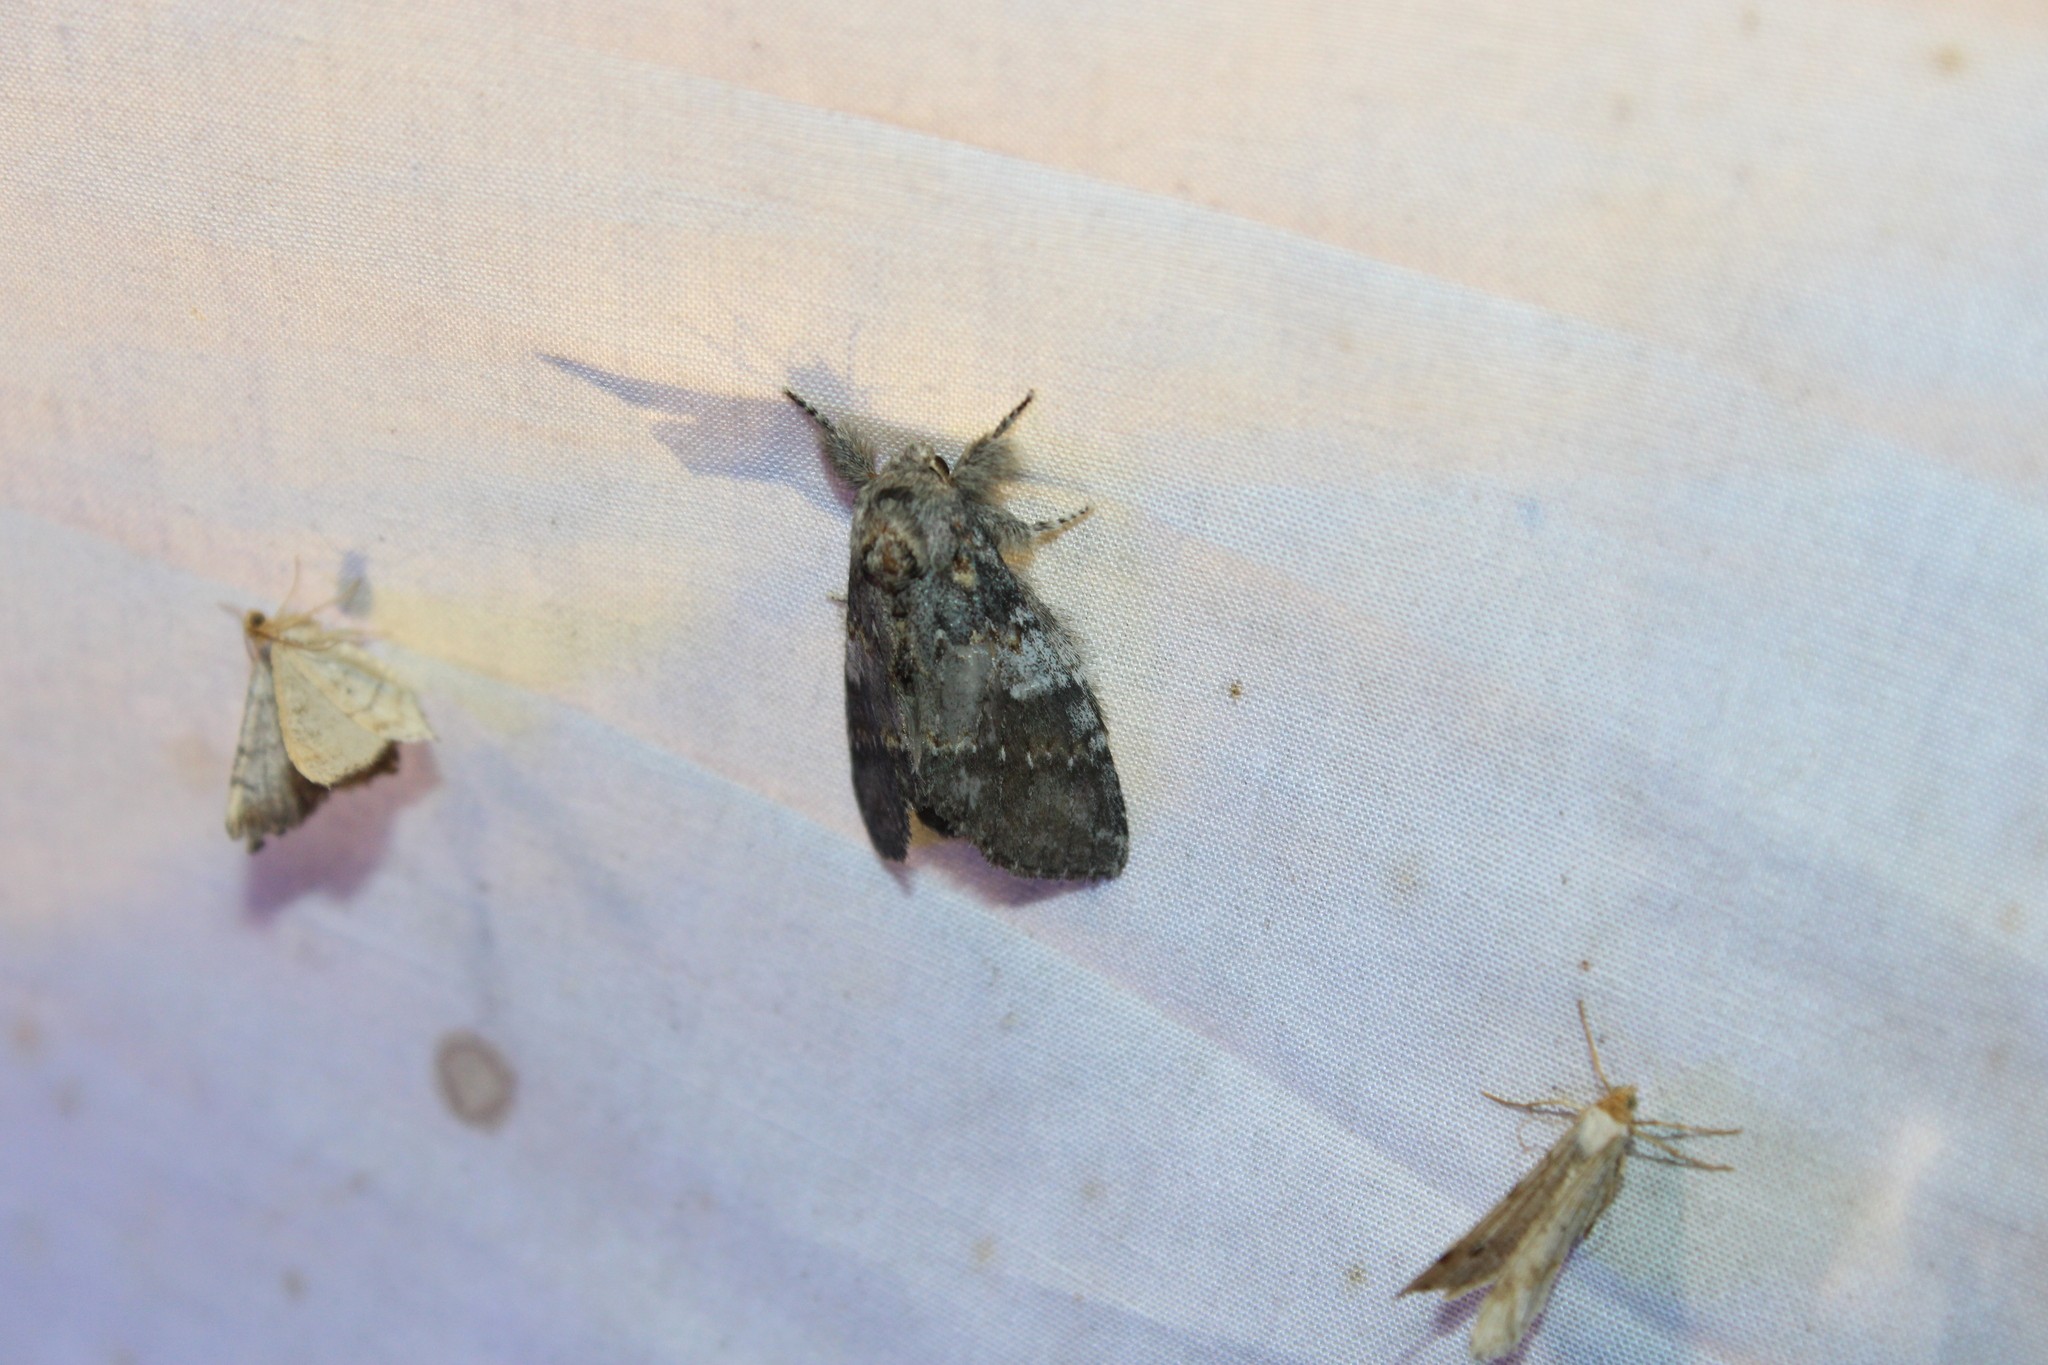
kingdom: Animalia
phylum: Arthropoda
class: Insecta
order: Lepidoptera
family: Notodontidae
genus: Peridea
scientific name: Peridea angulosa
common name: Angulose prominent
